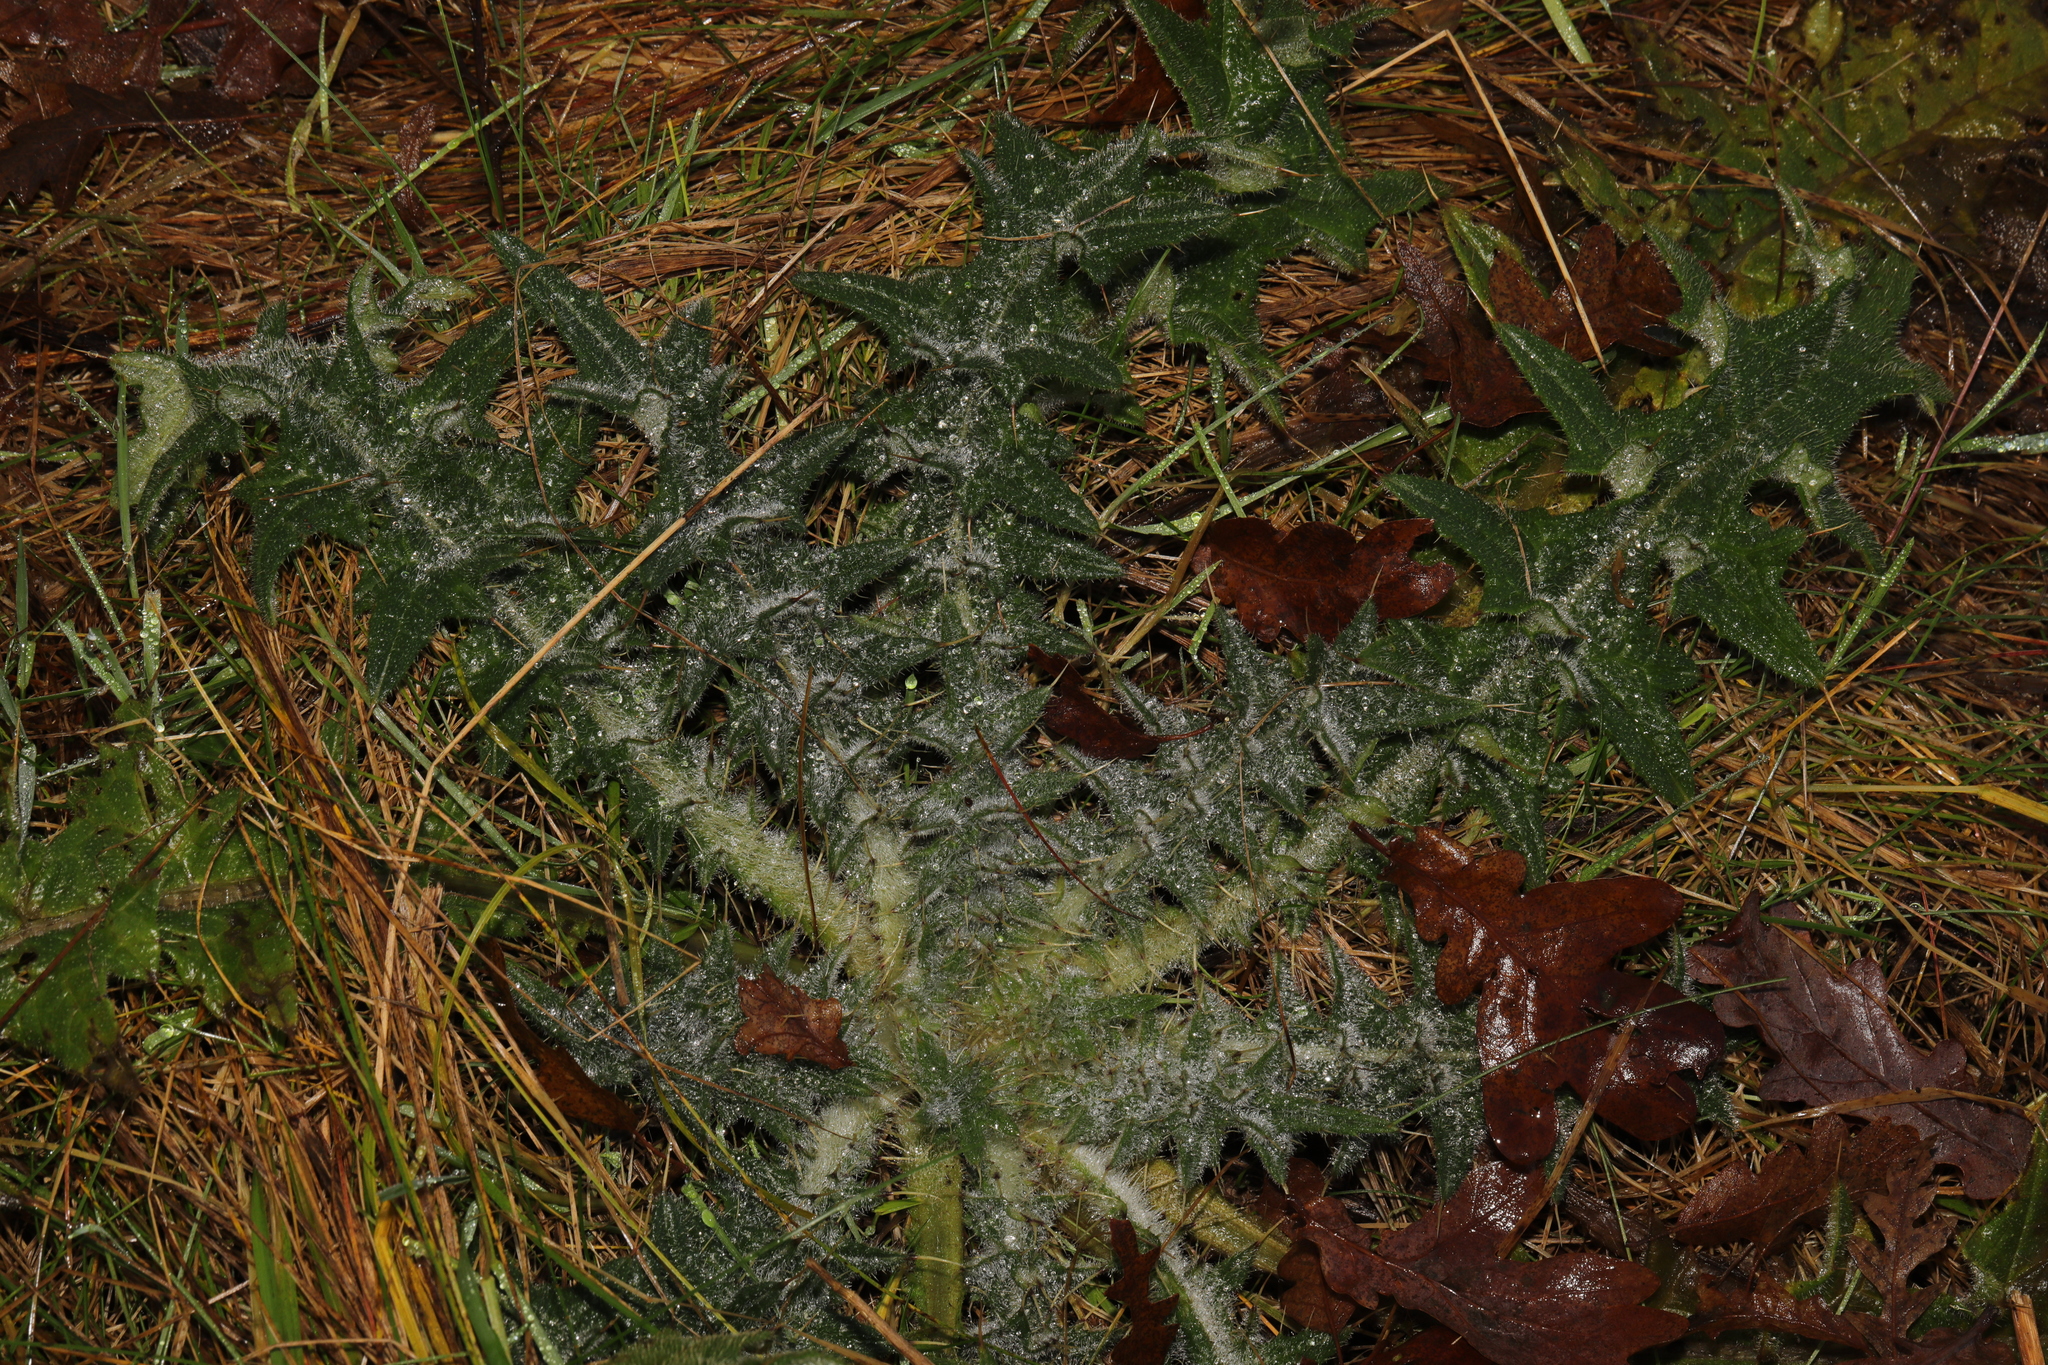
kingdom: Plantae
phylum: Tracheophyta
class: Magnoliopsida
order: Asterales
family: Asteraceae
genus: Cirsium
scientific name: Cirsium vulgare
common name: Bull thistle
